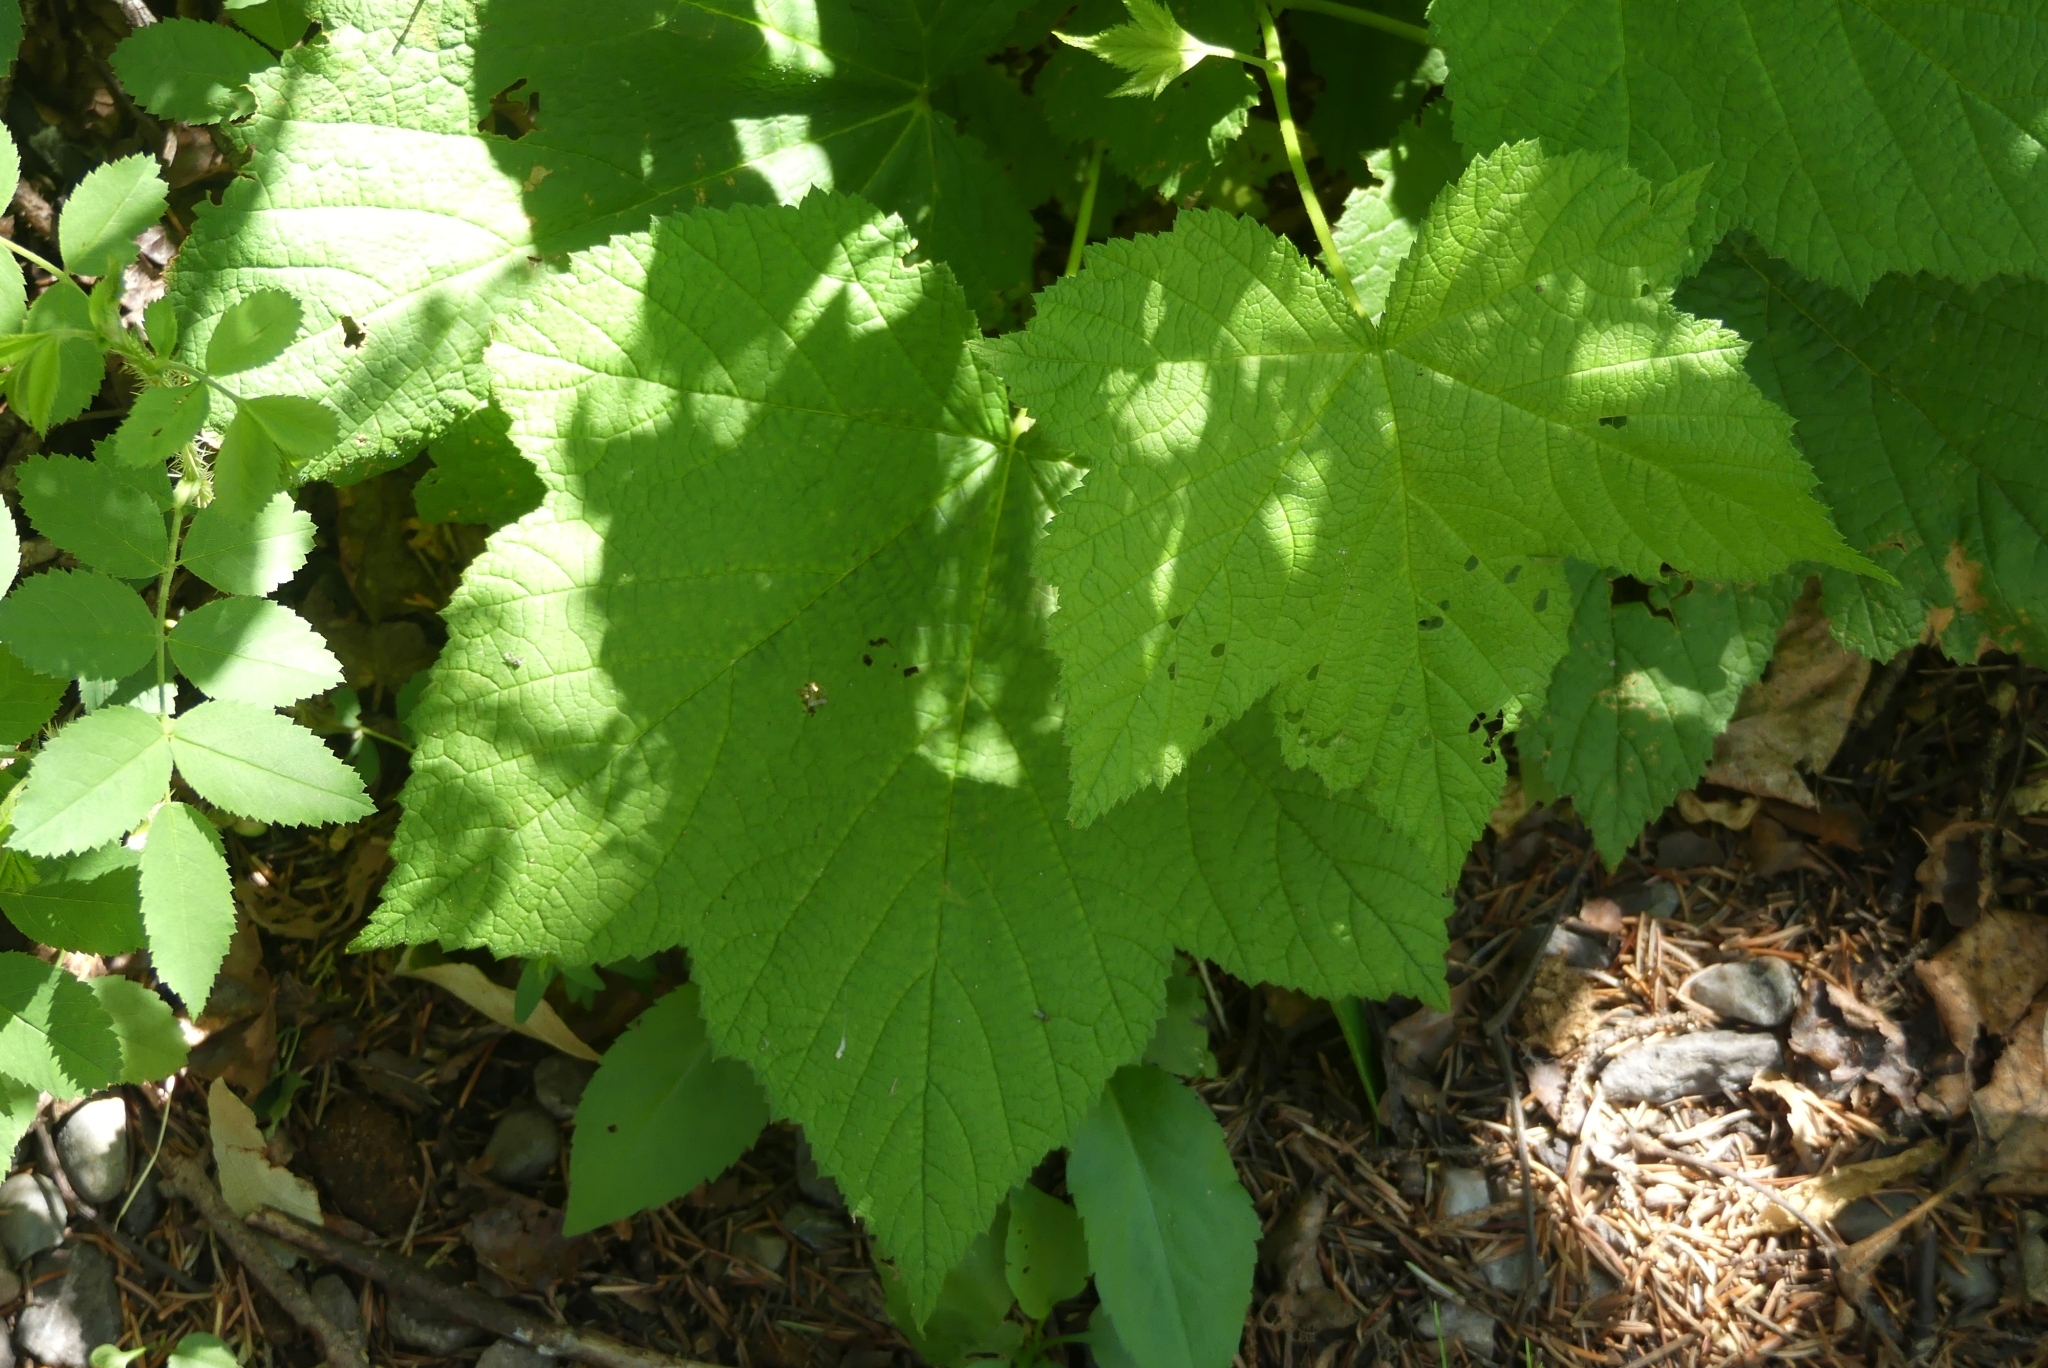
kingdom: Plantae
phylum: Tracheophyta
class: Magnoliopsida
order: Rosales
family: Rosaceae
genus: Rubus
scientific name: Rubus parviflorus
